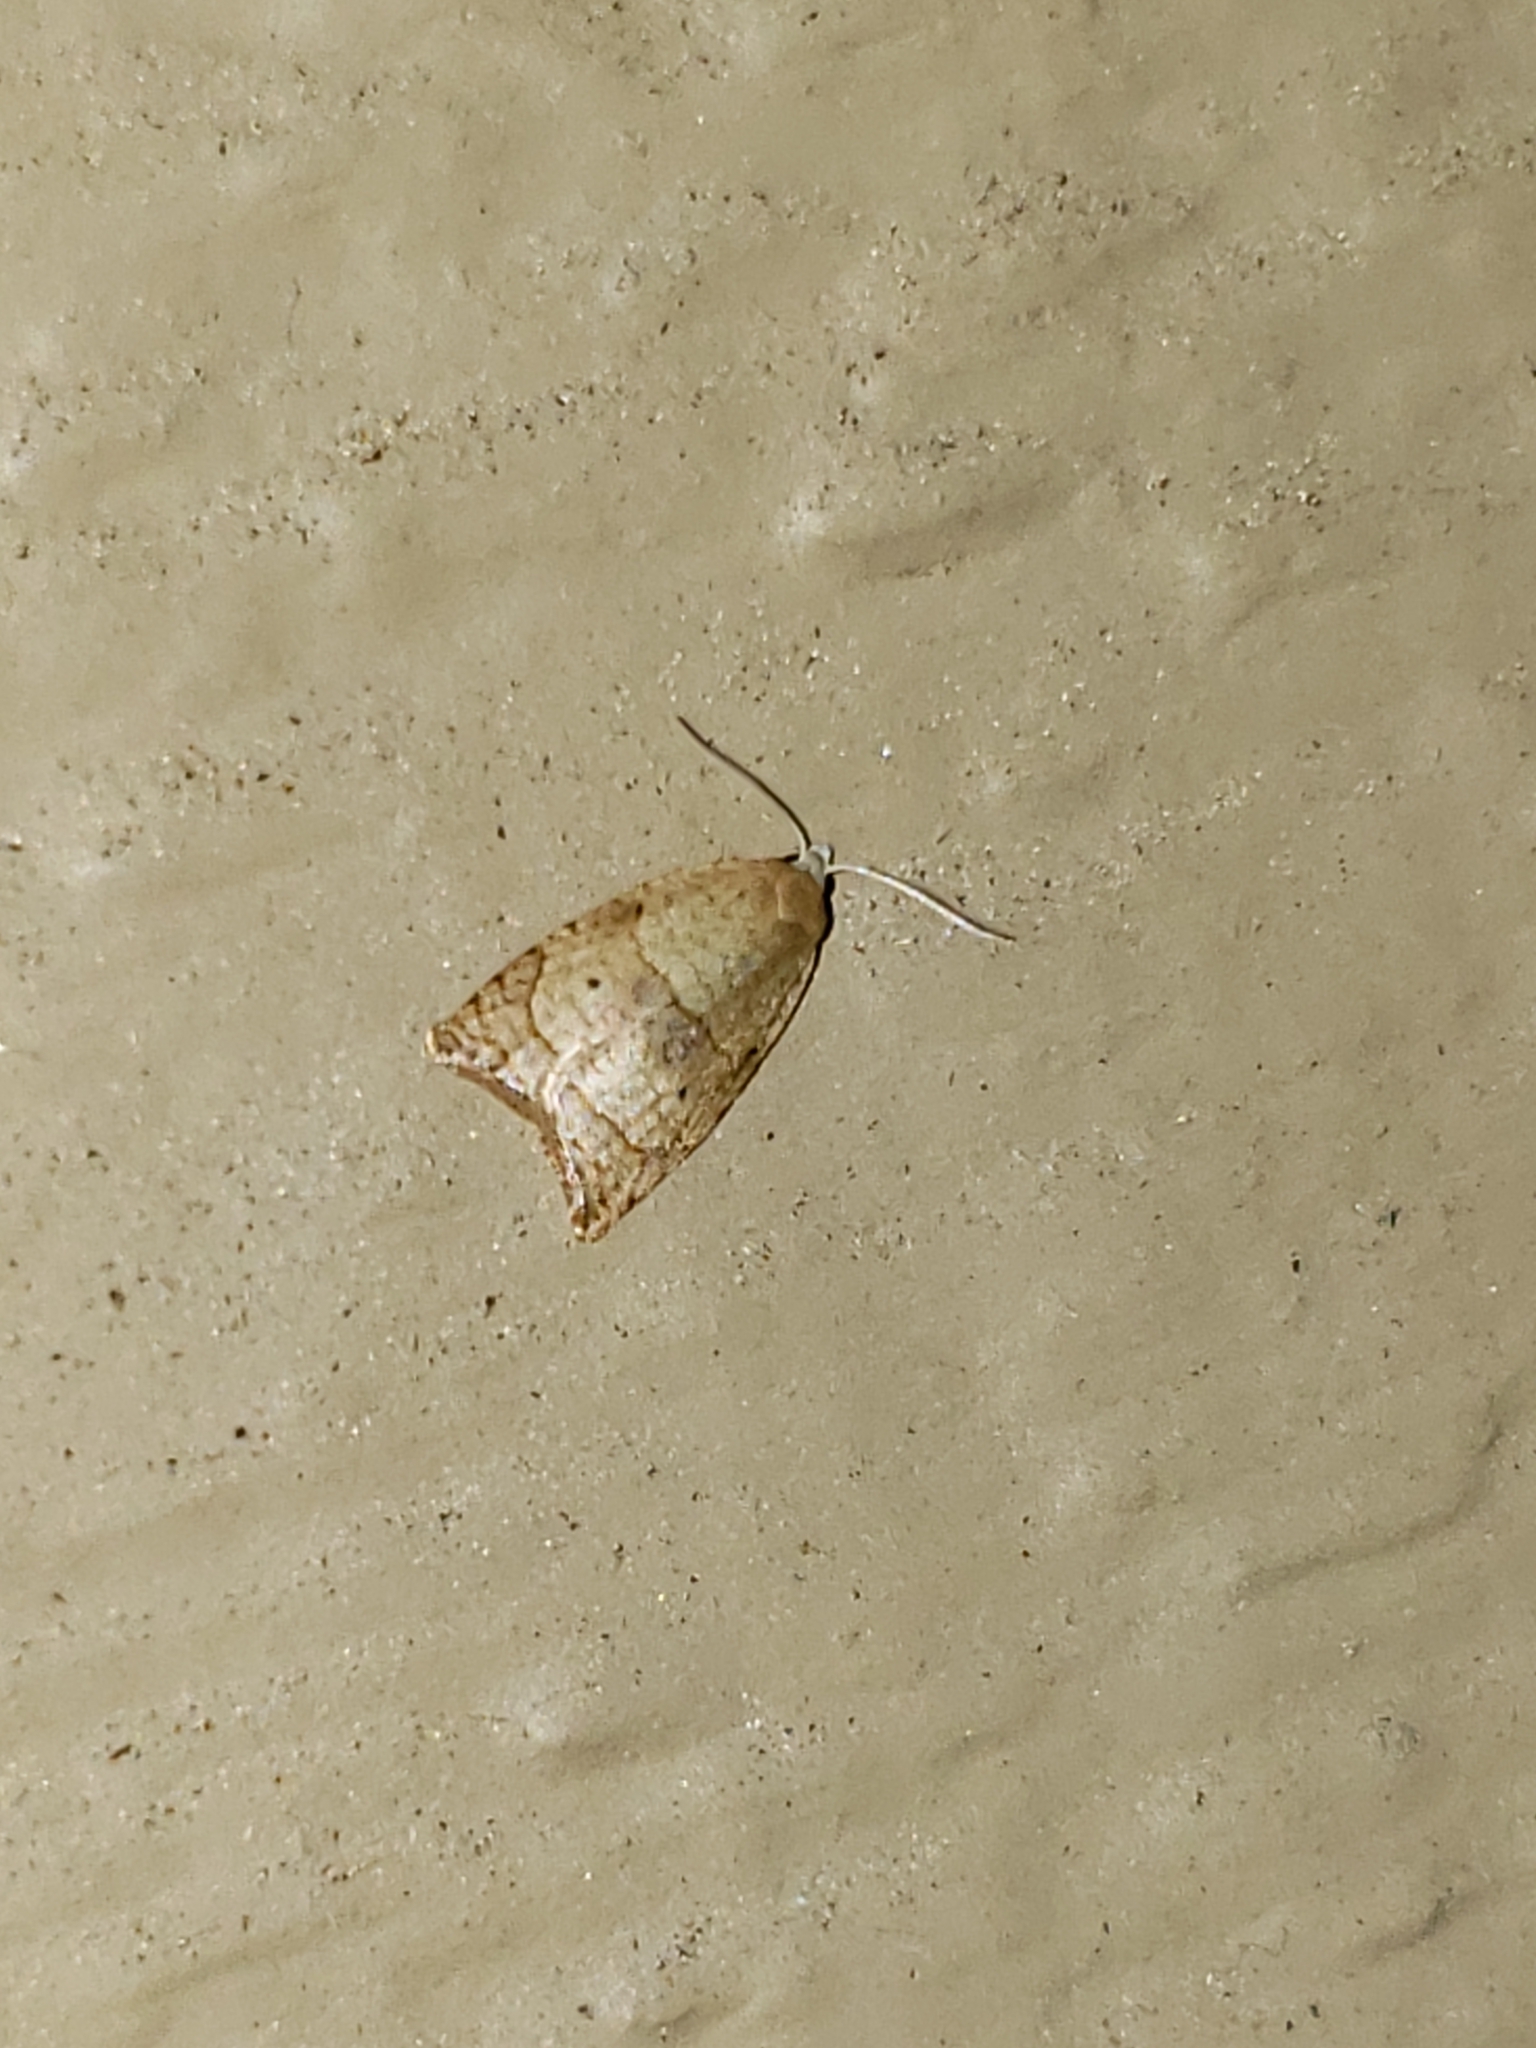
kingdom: Animalia
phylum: Arthropoda
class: Insecta
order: Lepidoptera
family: Tortricidae
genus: Coelostathma
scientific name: Coelostathma discopunctana
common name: Batman moth
